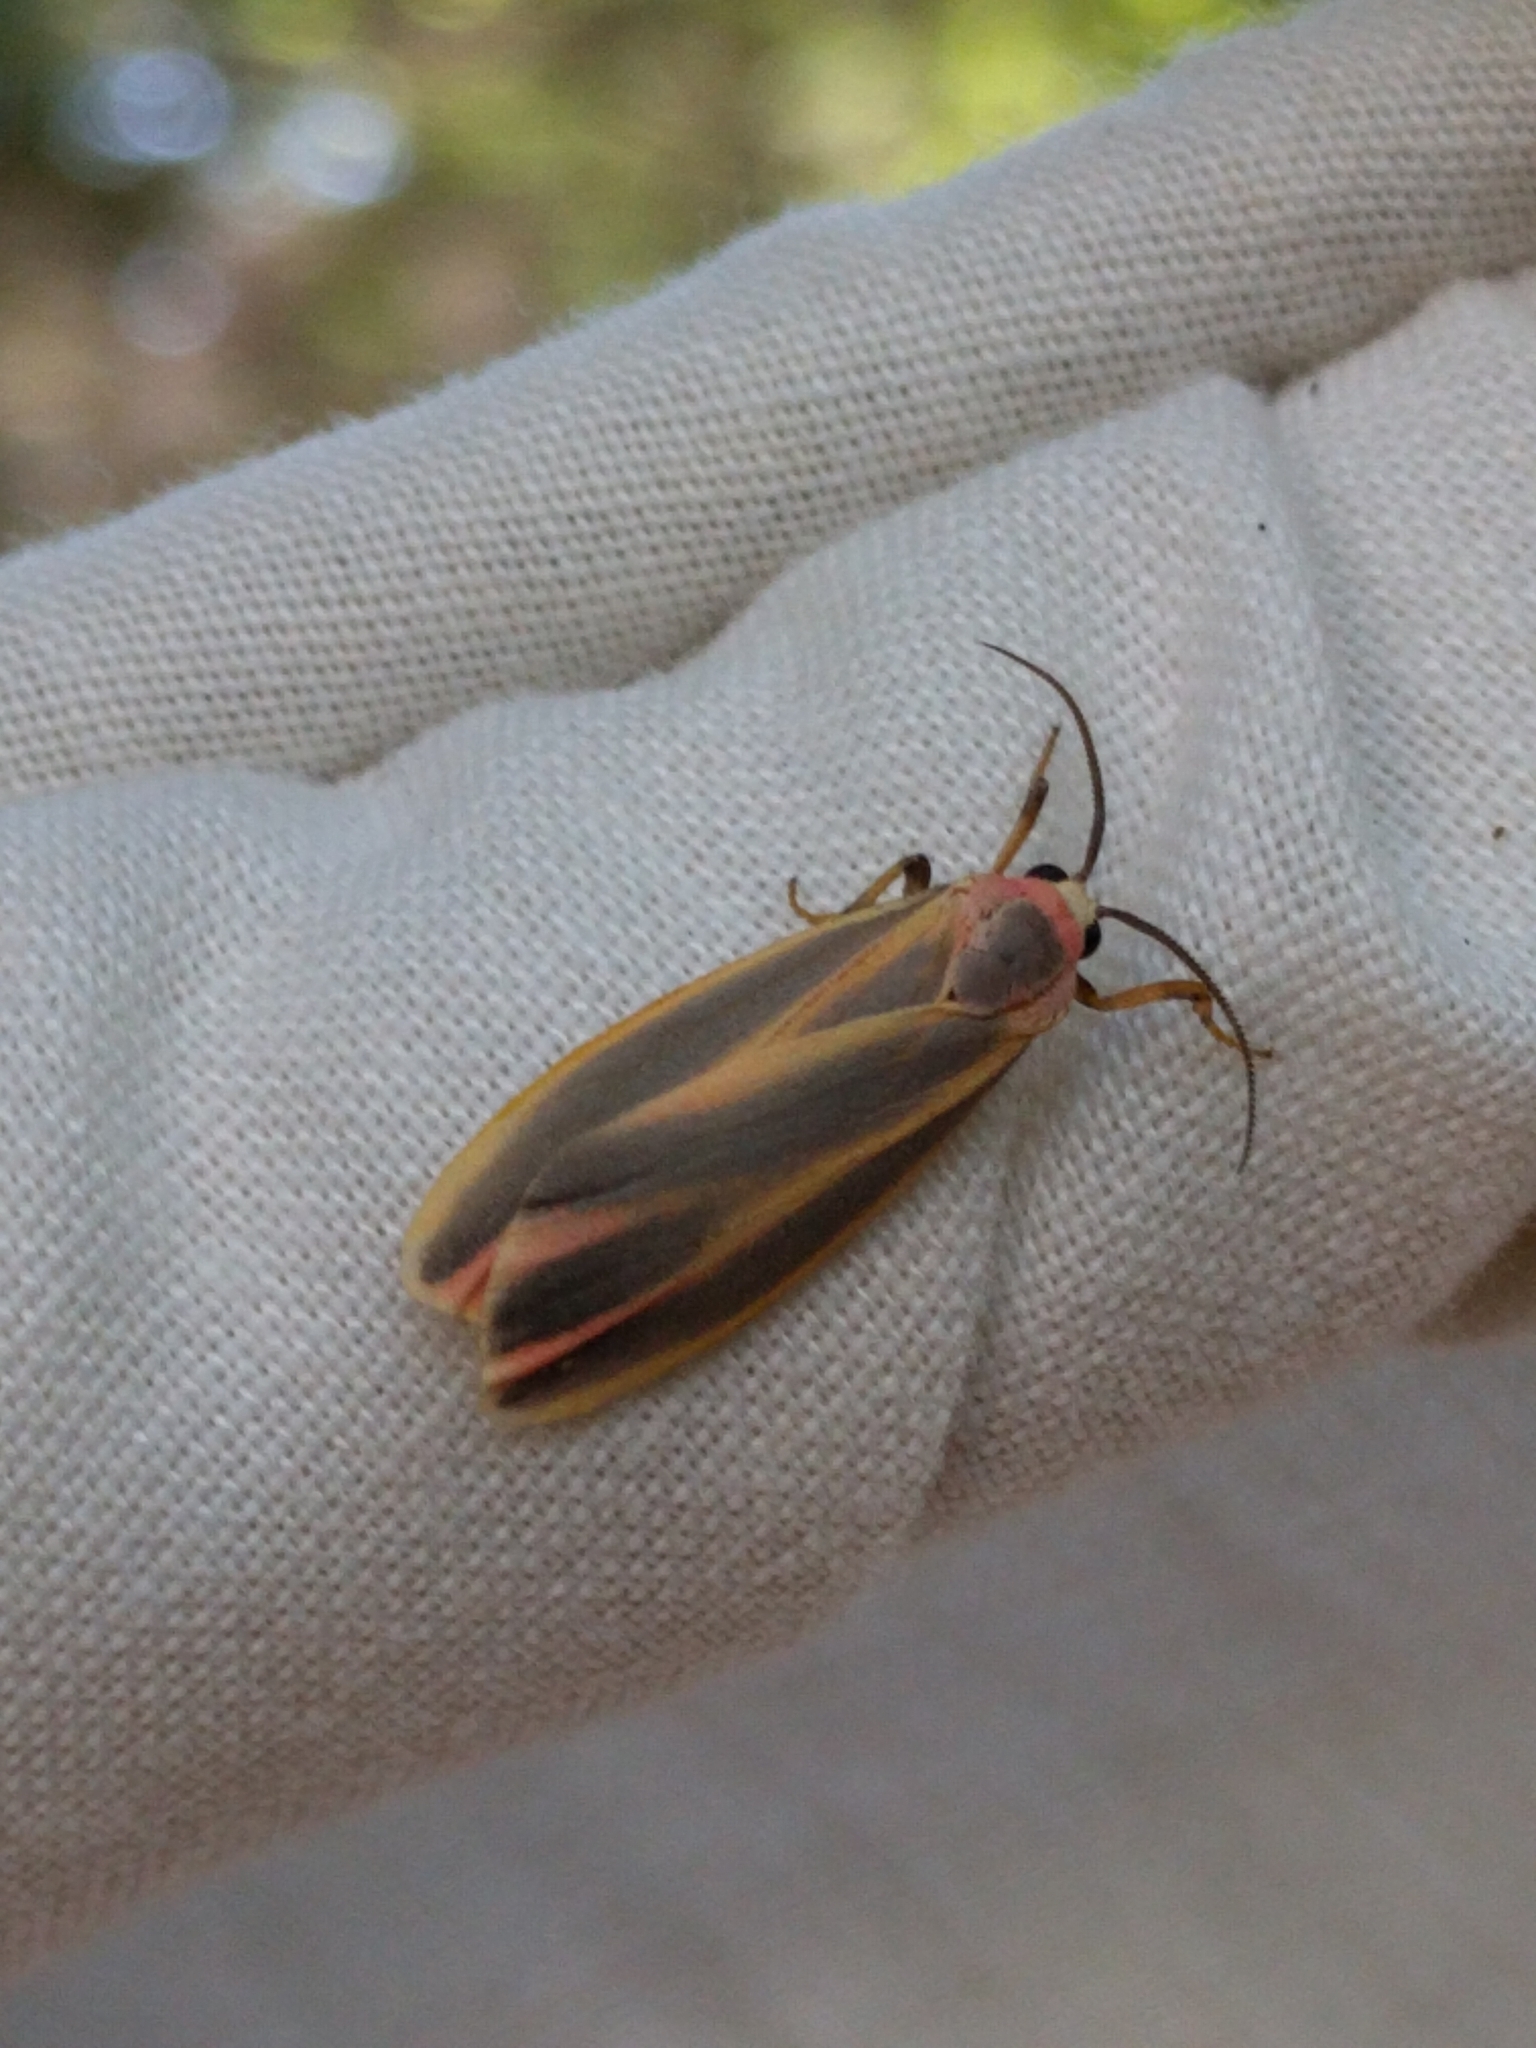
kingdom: Animalia
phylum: Arthropoda
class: Insecta
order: Lepidoptera
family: Erebidae
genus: Hypoprepia
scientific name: Hypoprepia fucosa
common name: Painted lichen moth
